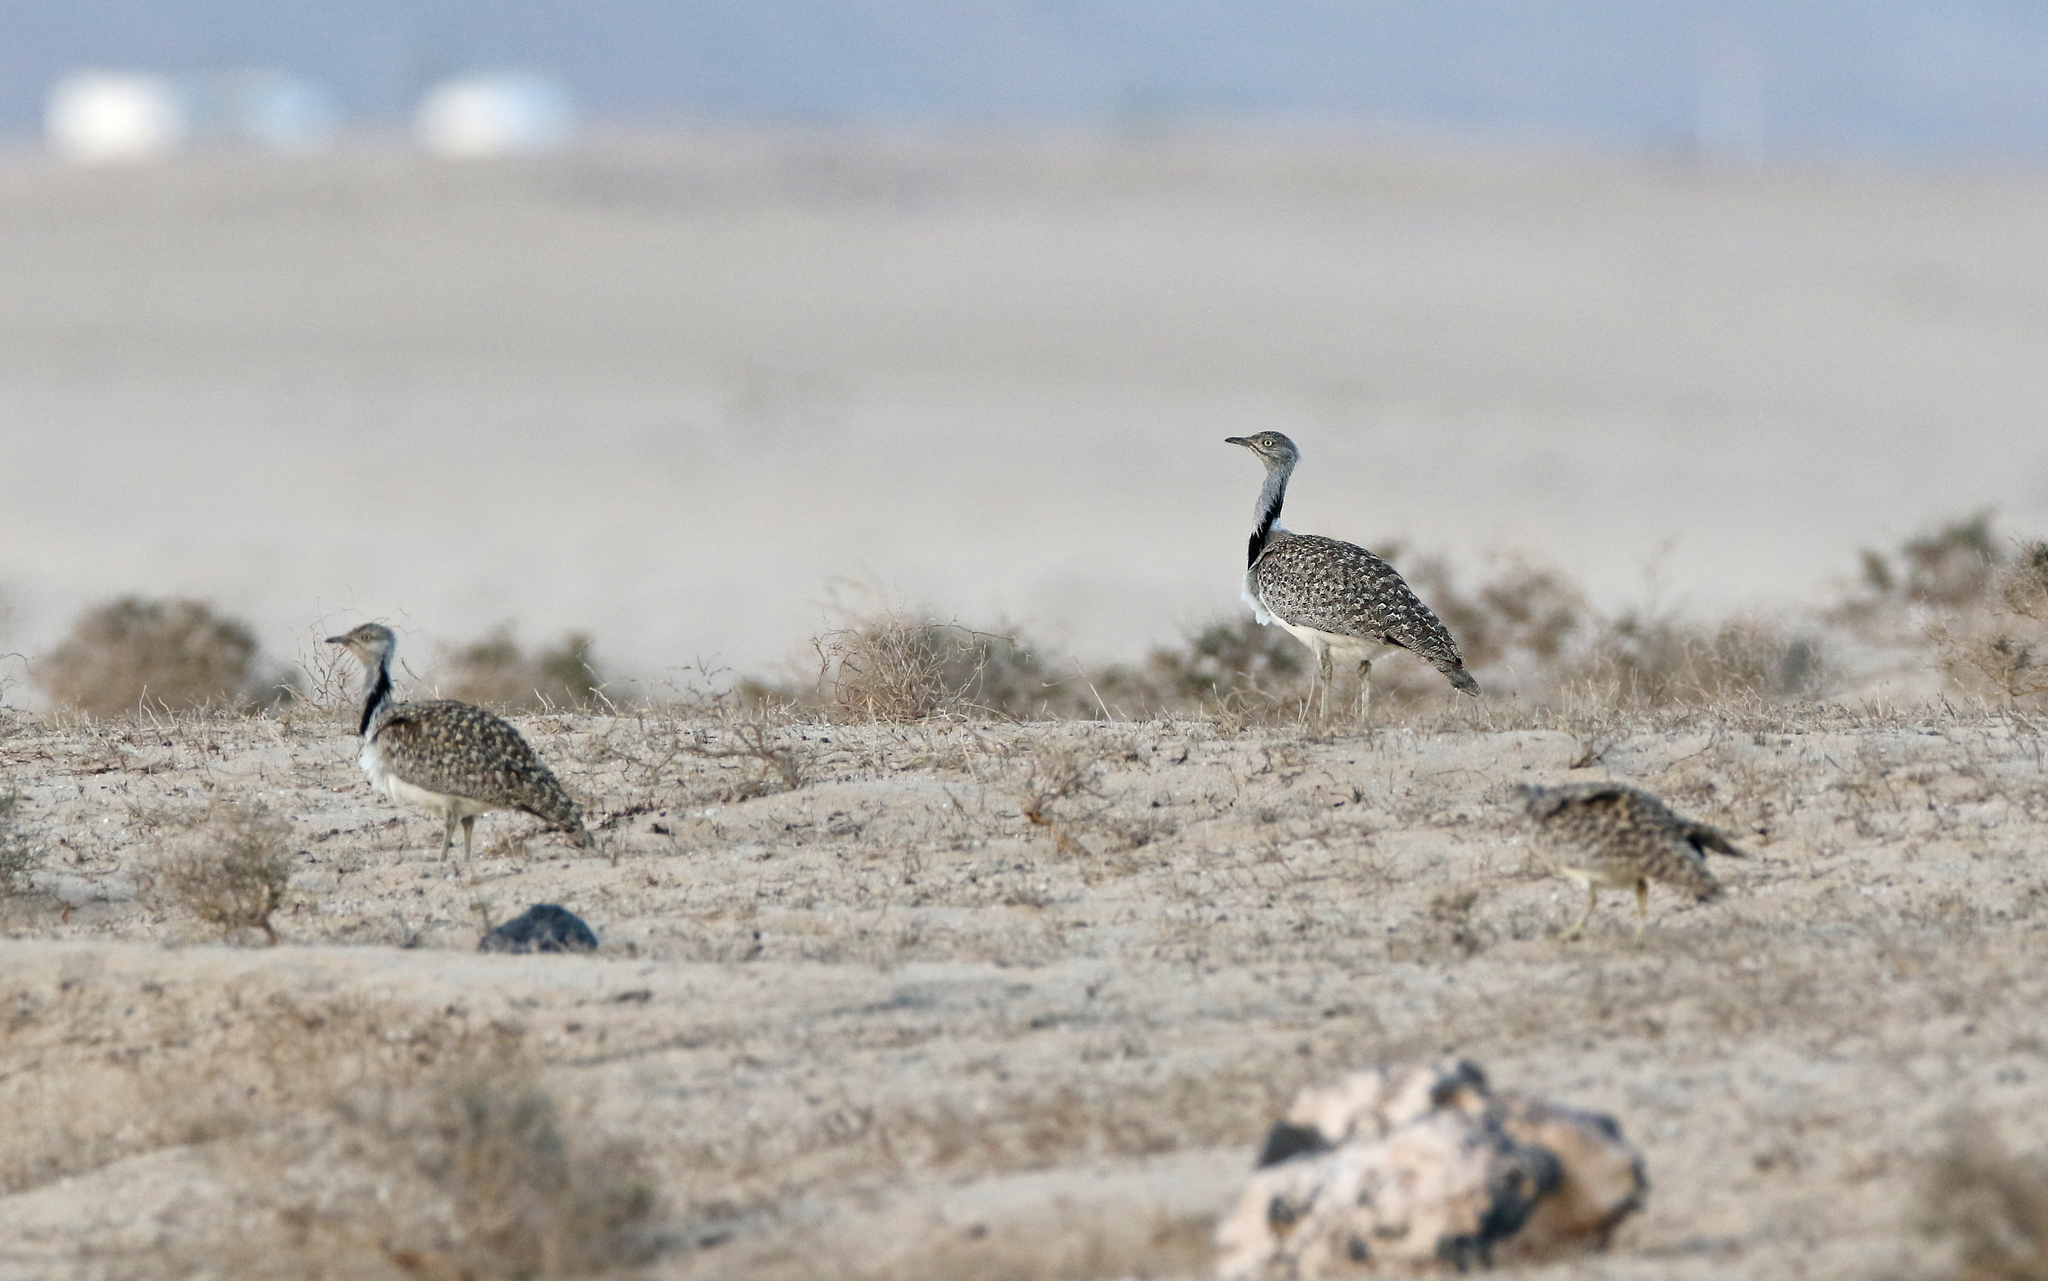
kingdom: Animalia
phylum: Chordata
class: Aves
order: Otidiformes
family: Otididae
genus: Chlamydotis
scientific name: Chlamydotis undulata
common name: Houbara bustard
